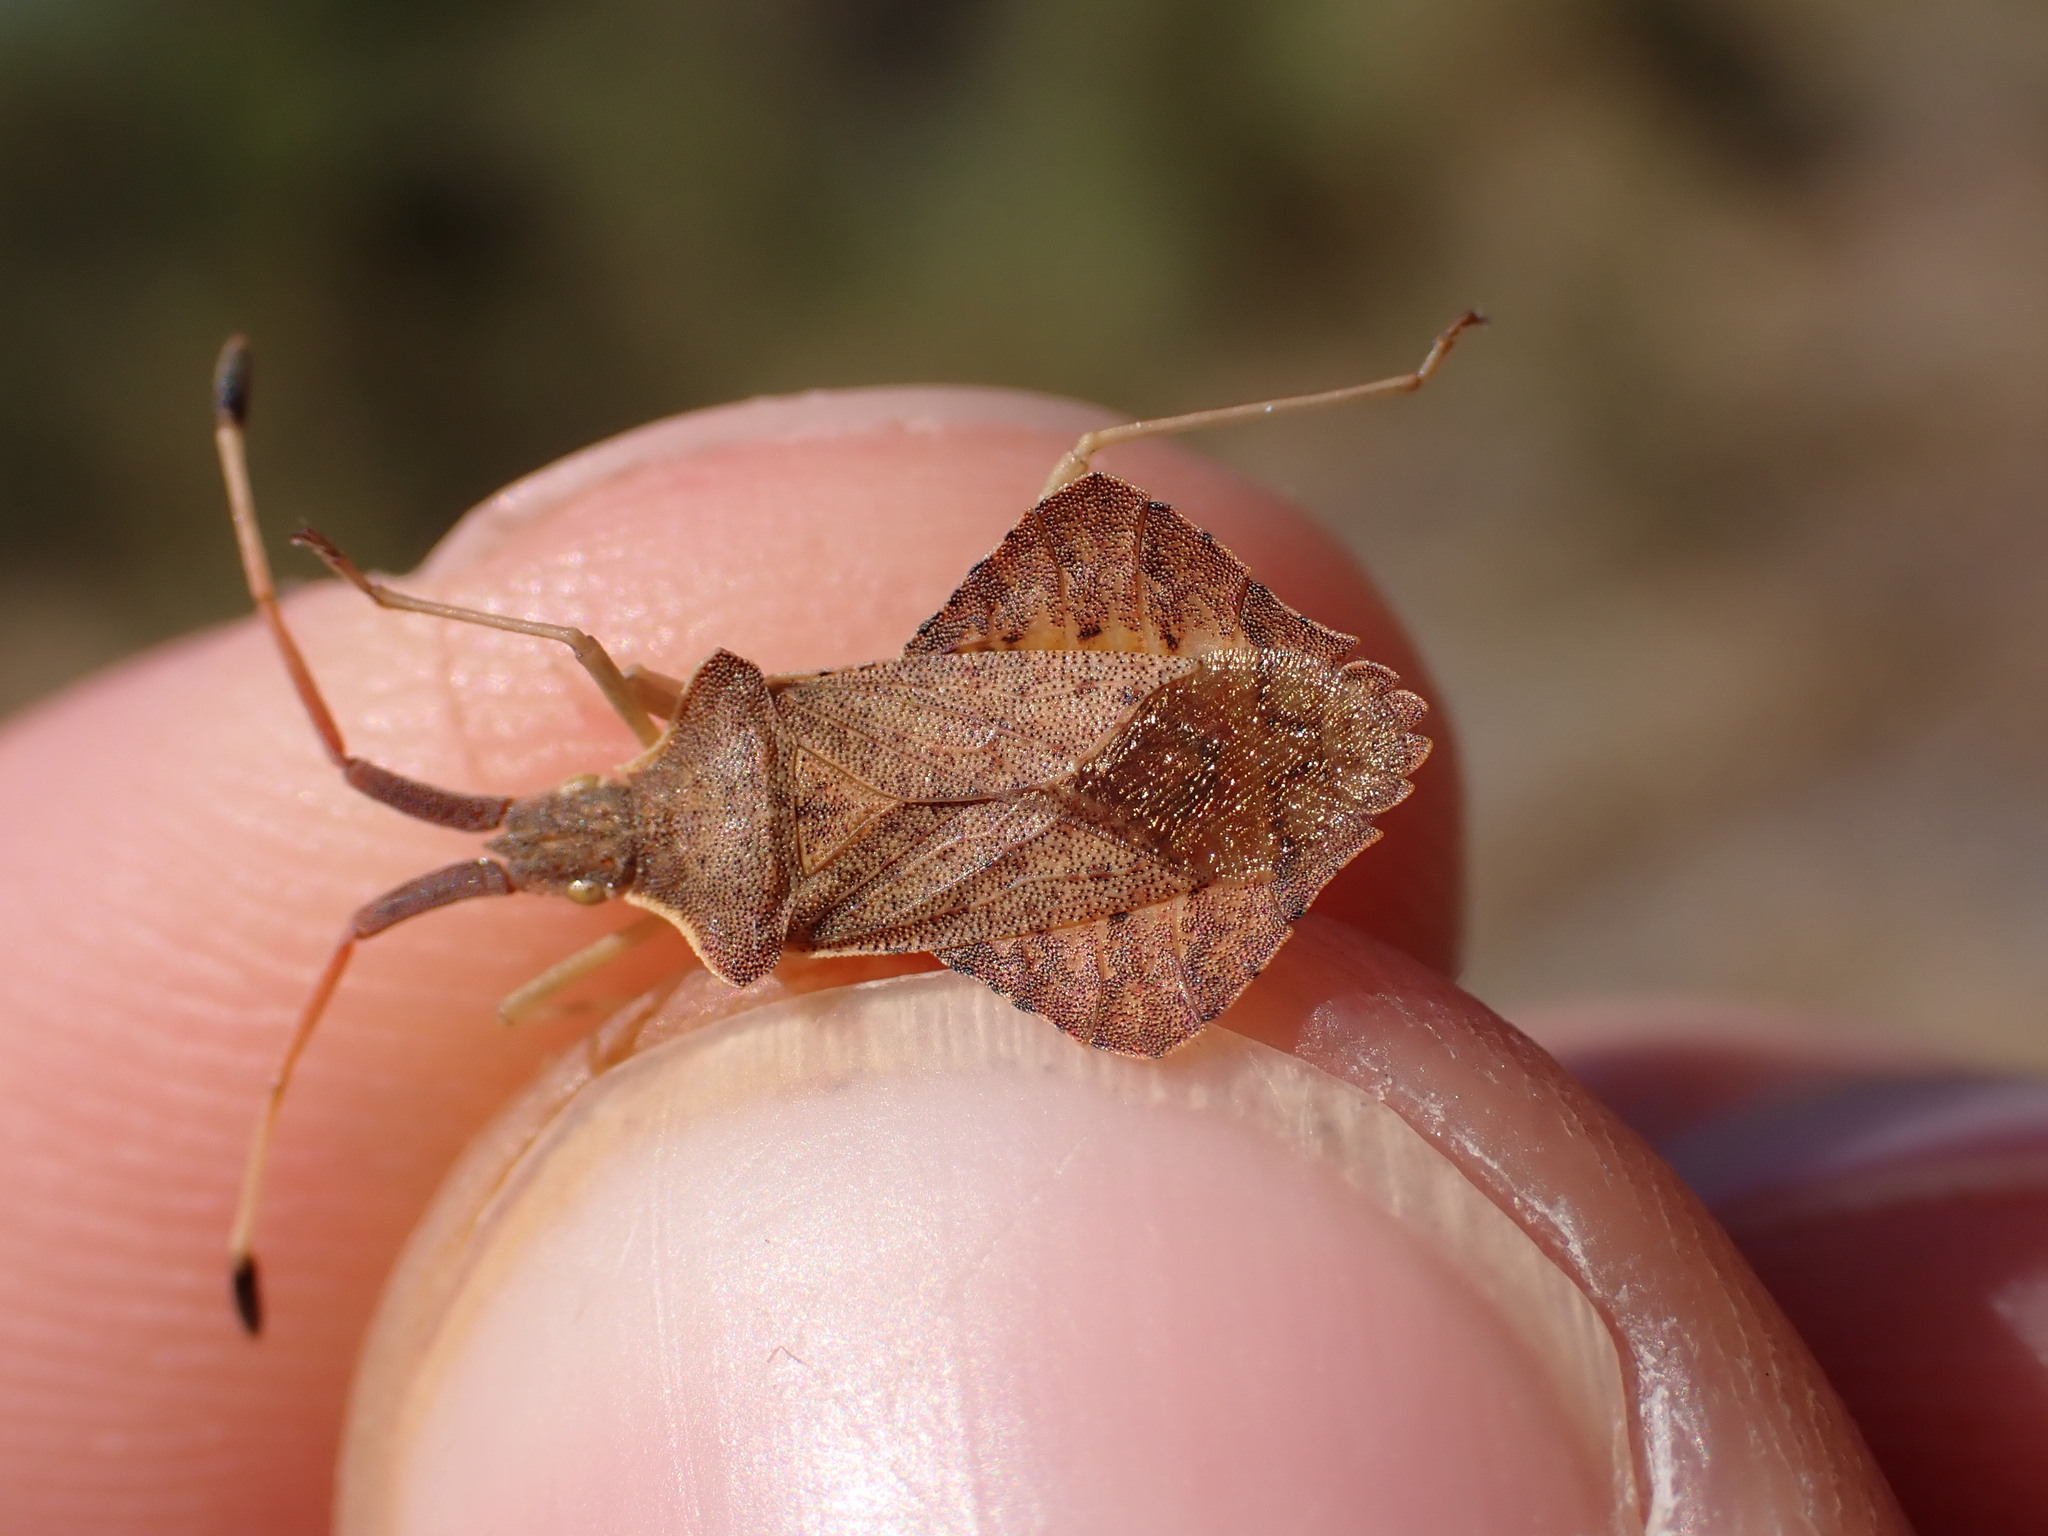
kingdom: Animalia
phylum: Arthropoda
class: Insecta
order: Hemiptera
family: Coreidae
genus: Syromastus
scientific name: Syromastus rhombeus
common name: Rhombic leatherbug
